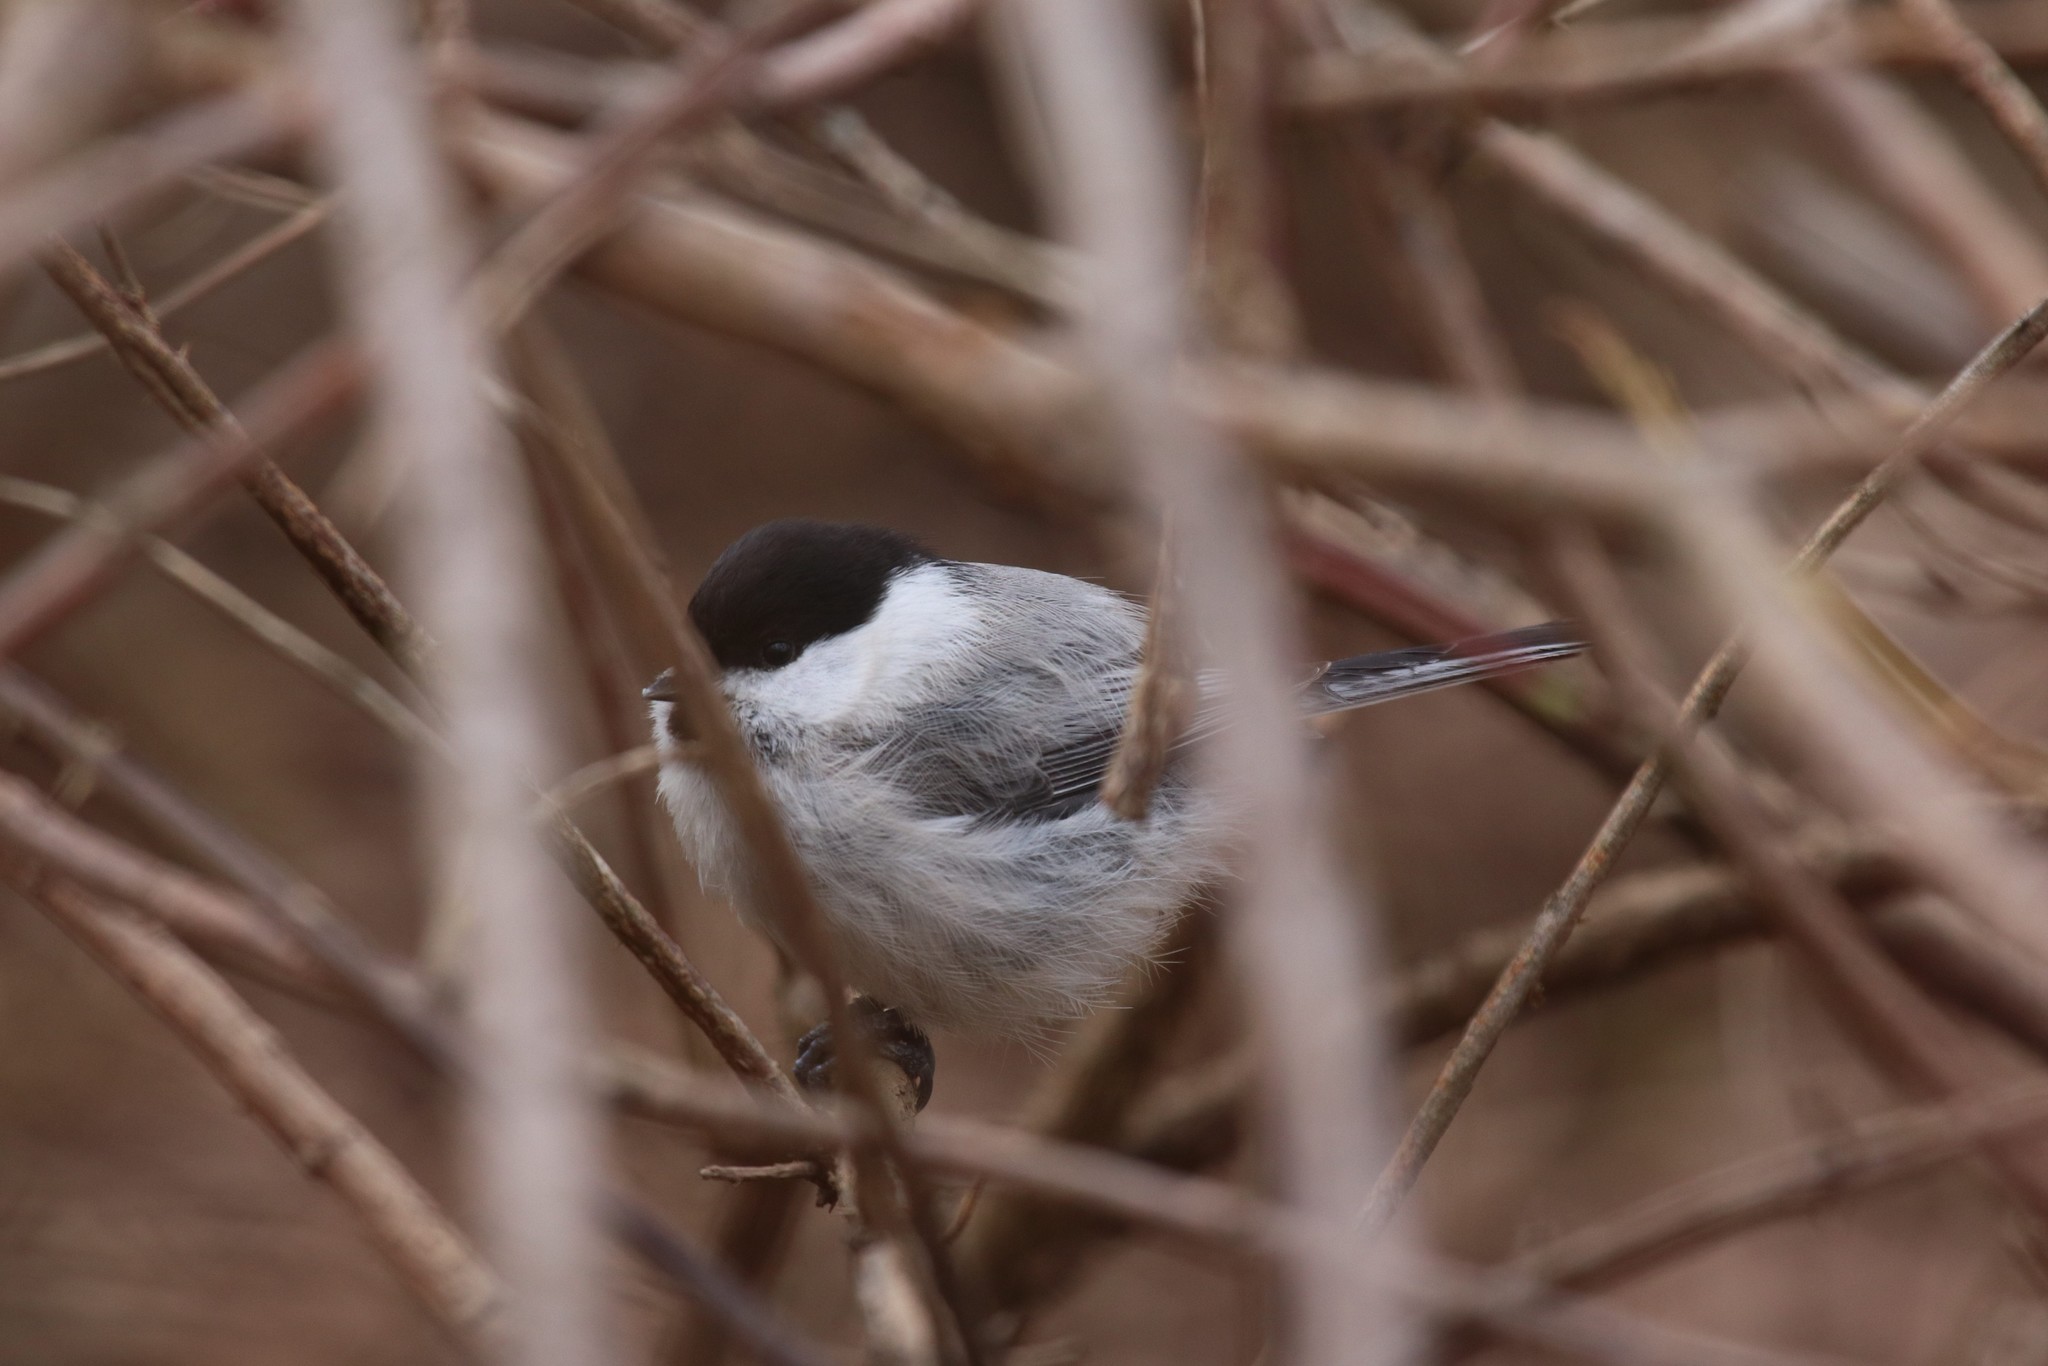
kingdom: Animalia
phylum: Chordata
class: Aves
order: Passeriformes
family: Paridae
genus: Poecile
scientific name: Poecile montanus
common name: Willow tit
